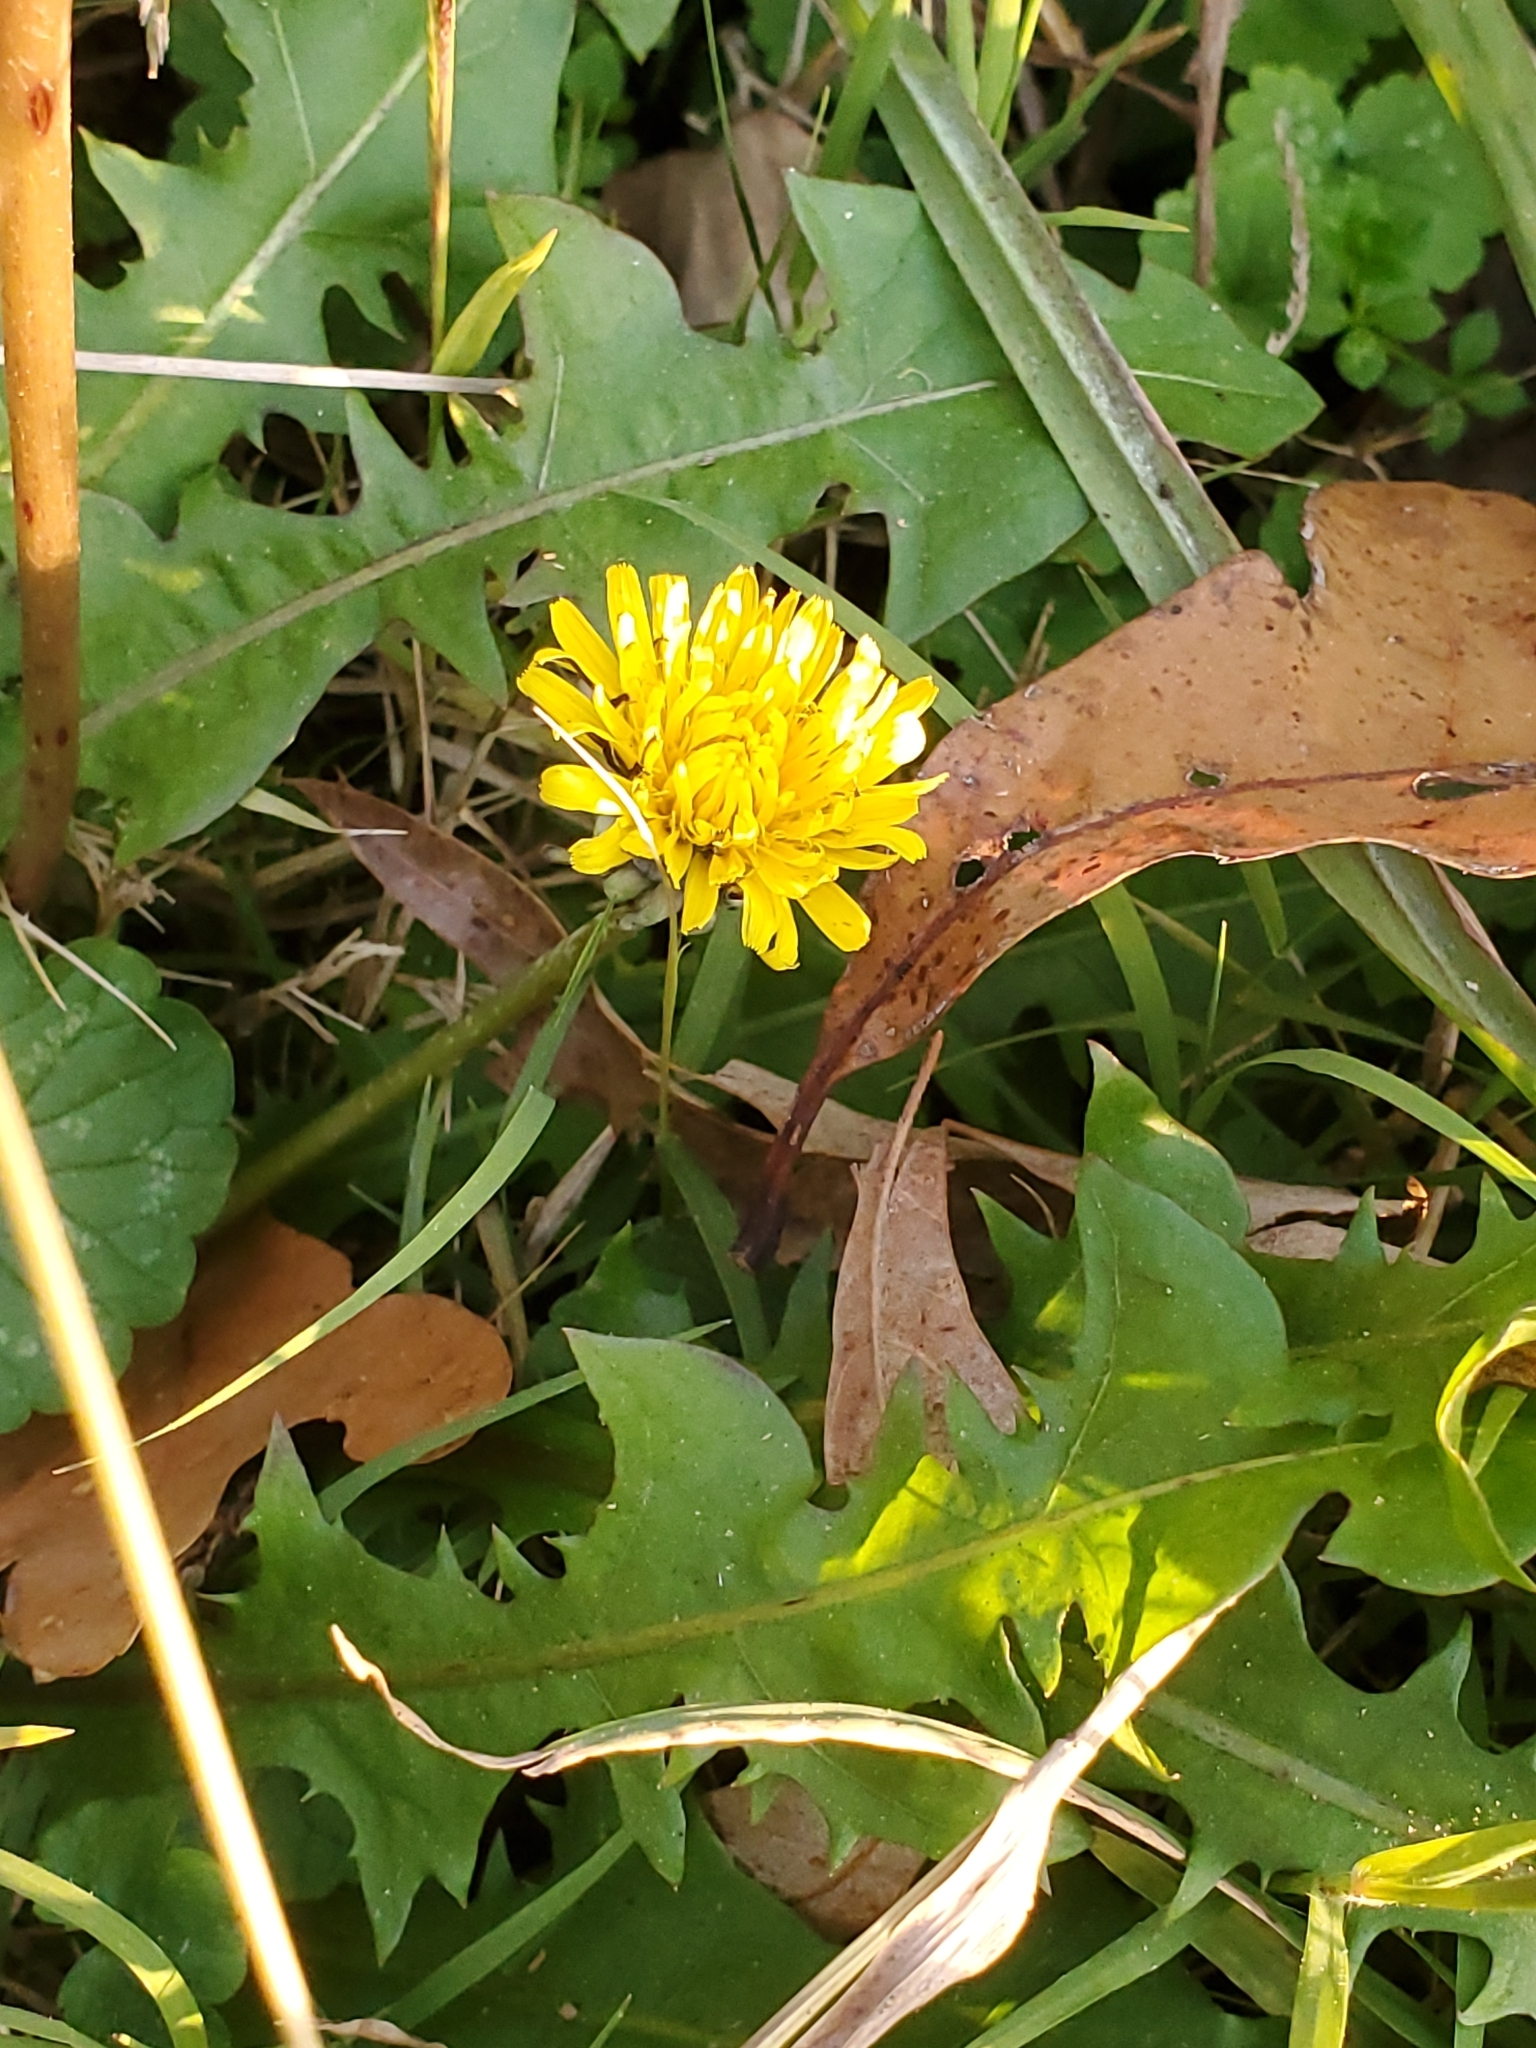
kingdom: Plantae
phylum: Tracheophyta
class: Magnoliopsida
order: Asterales
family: Asteraceae
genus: Taraxacum
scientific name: Taraxacum officinale
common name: Common dandelion
